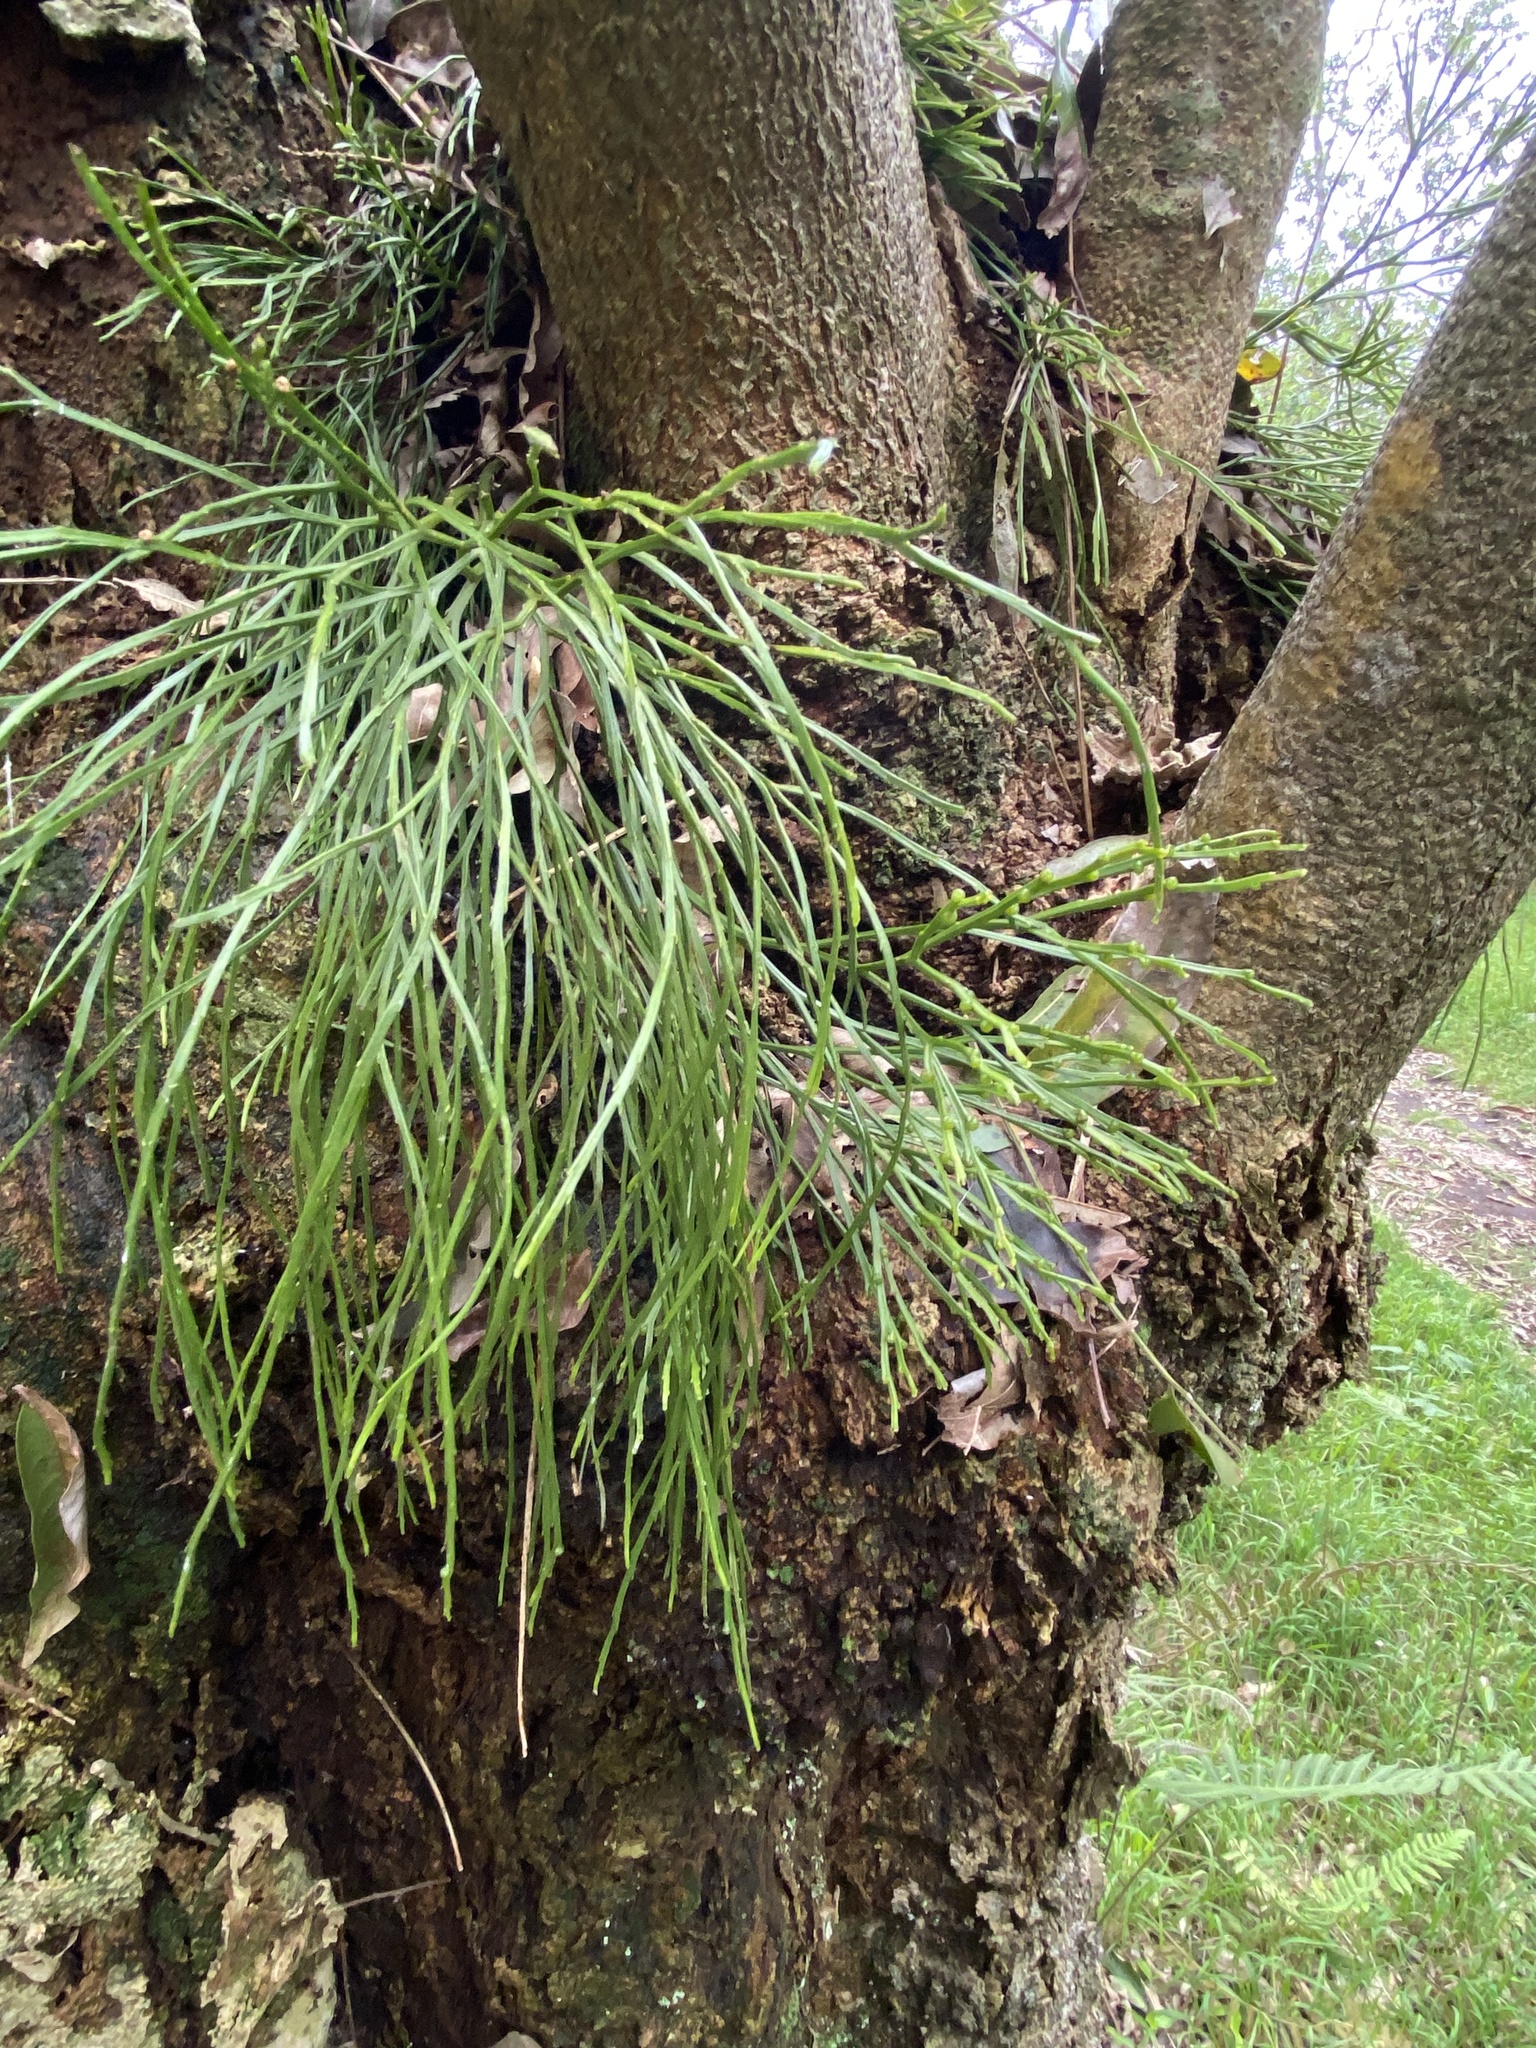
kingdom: Plantae
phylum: Tracheophyta
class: Polypodiopsida
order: Psilotales
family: Psilotaceae
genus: Psilotum
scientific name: Psilotum nudum
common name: Skeleton fork fern
